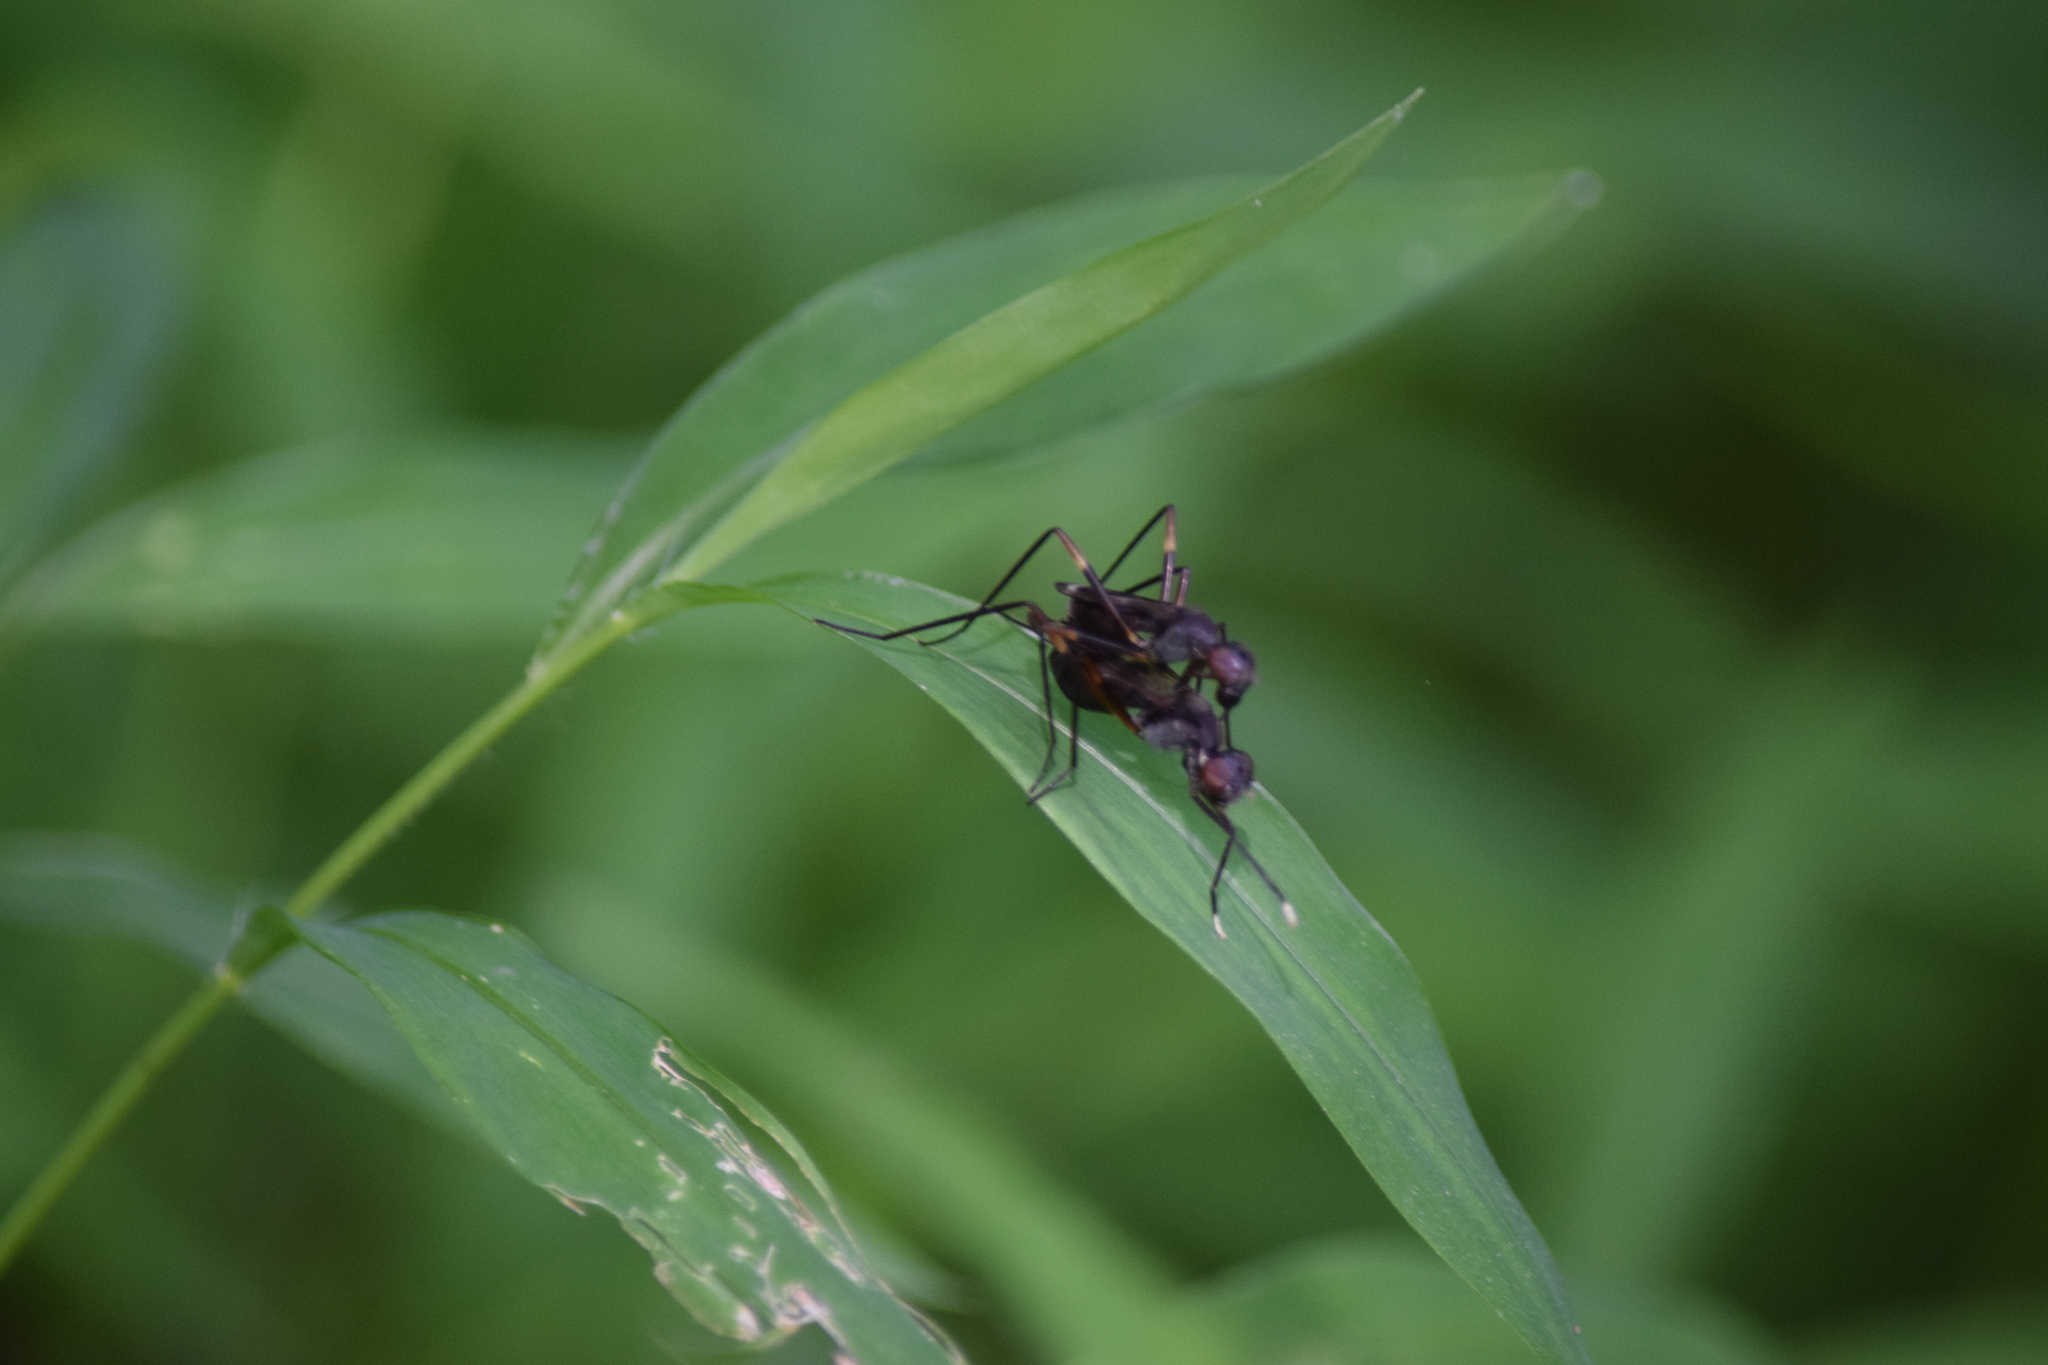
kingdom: Animalia
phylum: Arthropoda
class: Insecta
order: Diptera
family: Micropezidae
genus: Taeniaptera
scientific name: Taeniaptera trivittata
